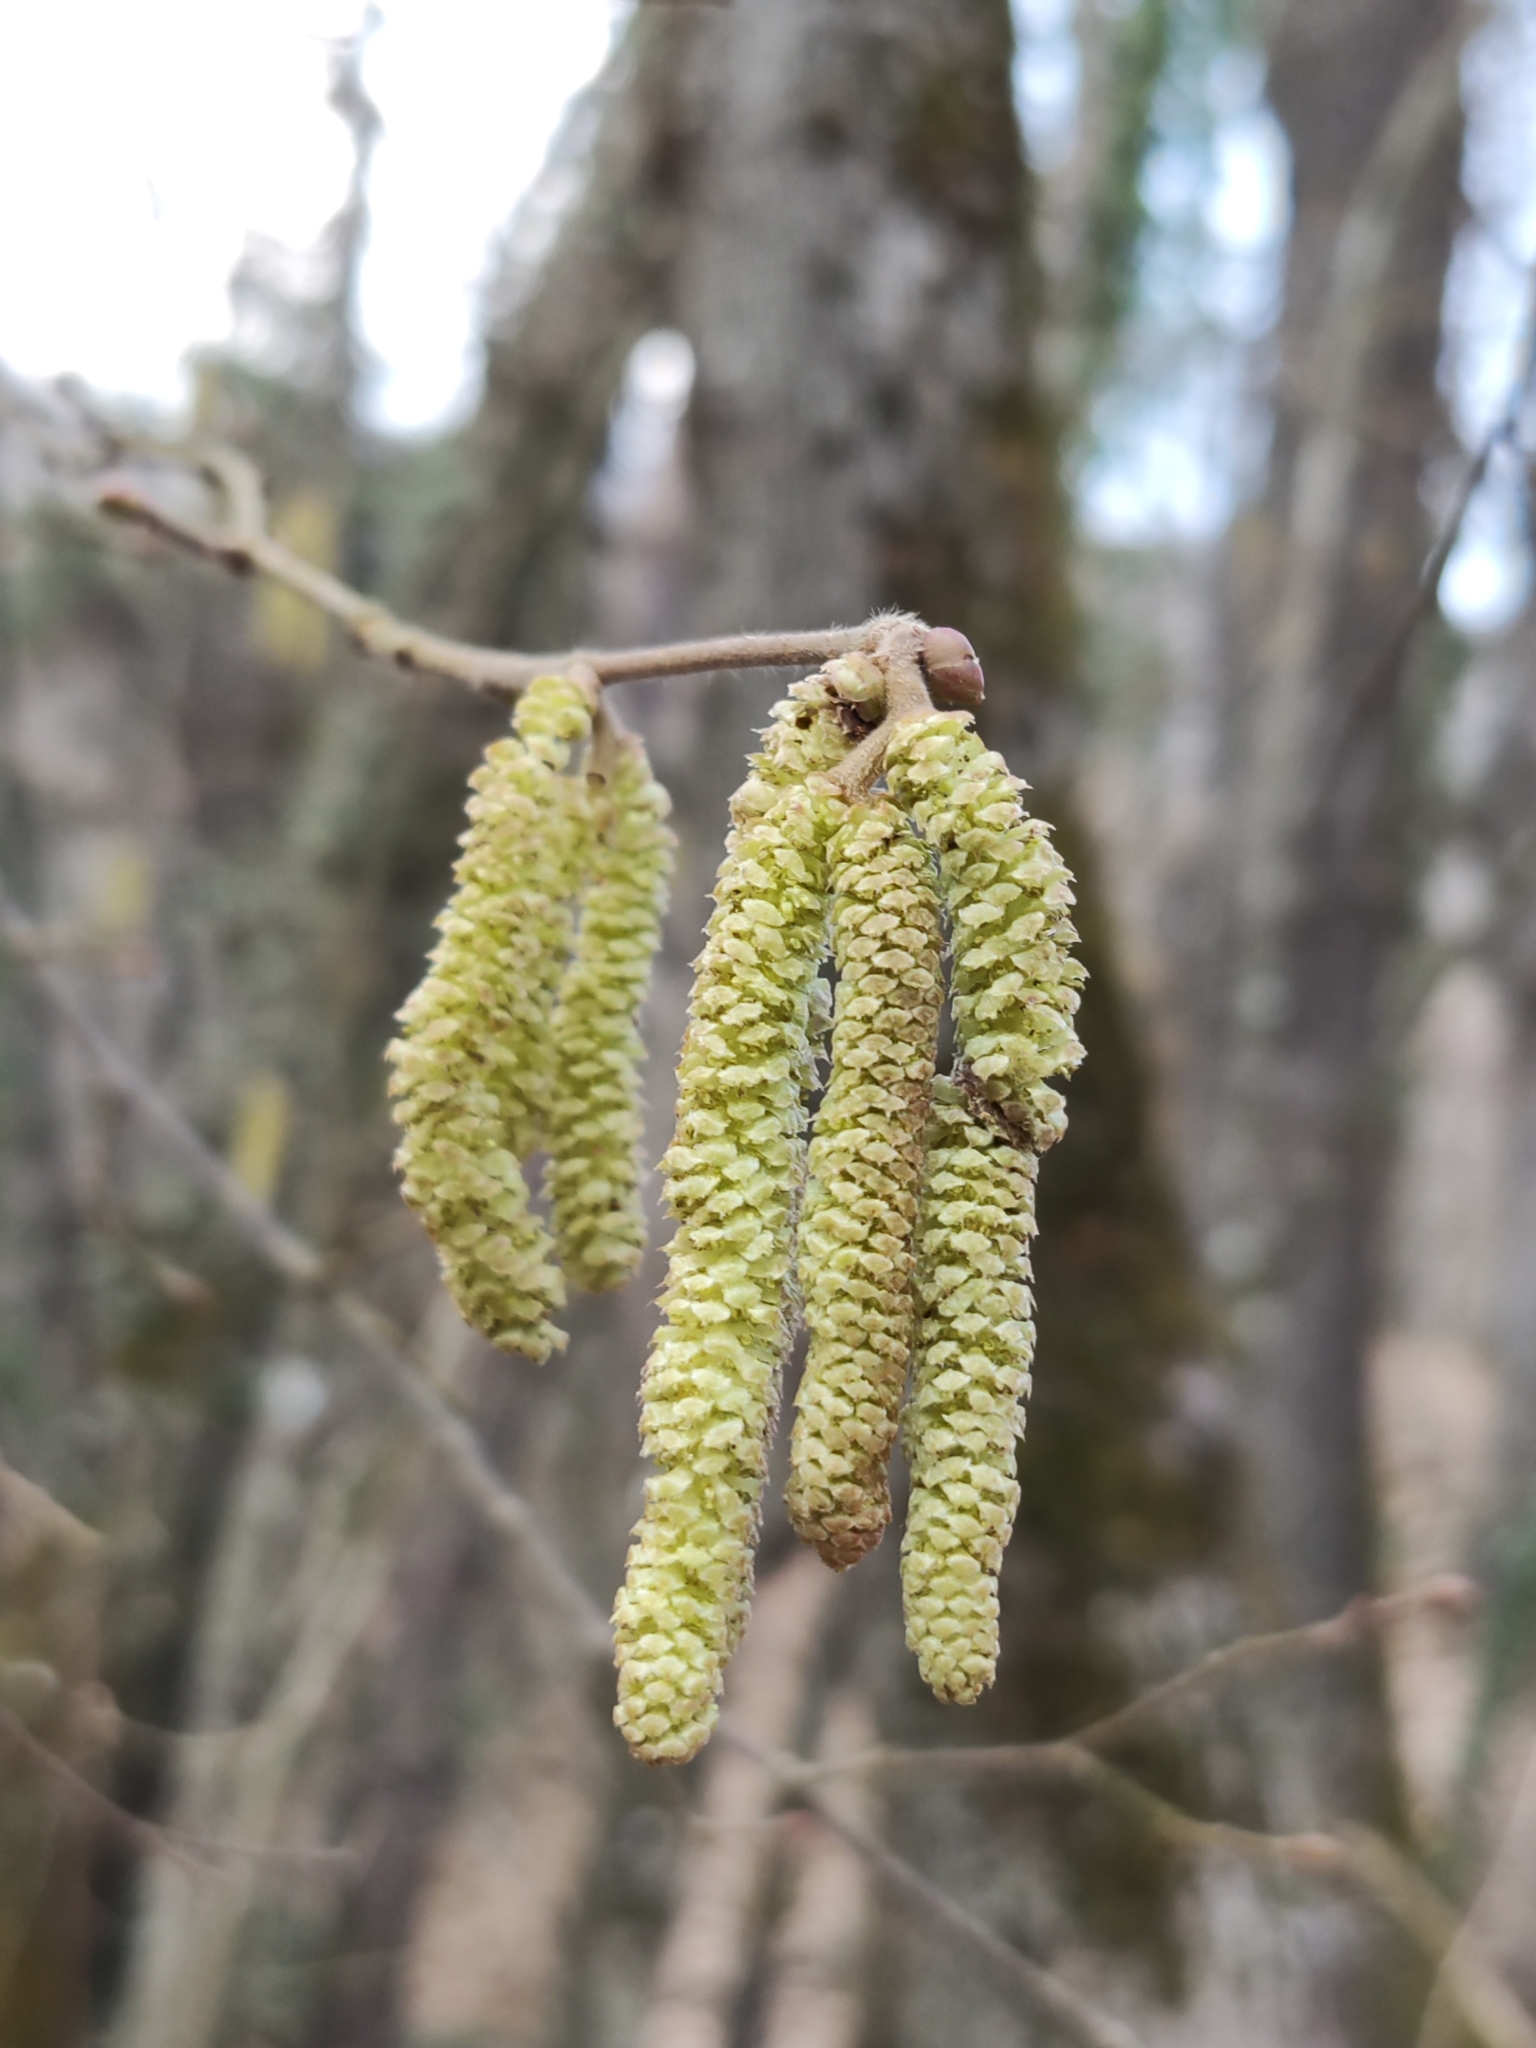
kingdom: Plantae
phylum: Tracheophyta
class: Magnoliopsida
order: Fagales
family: Betulaceae
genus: Corylus
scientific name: Corylus avellana
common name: European hazel
